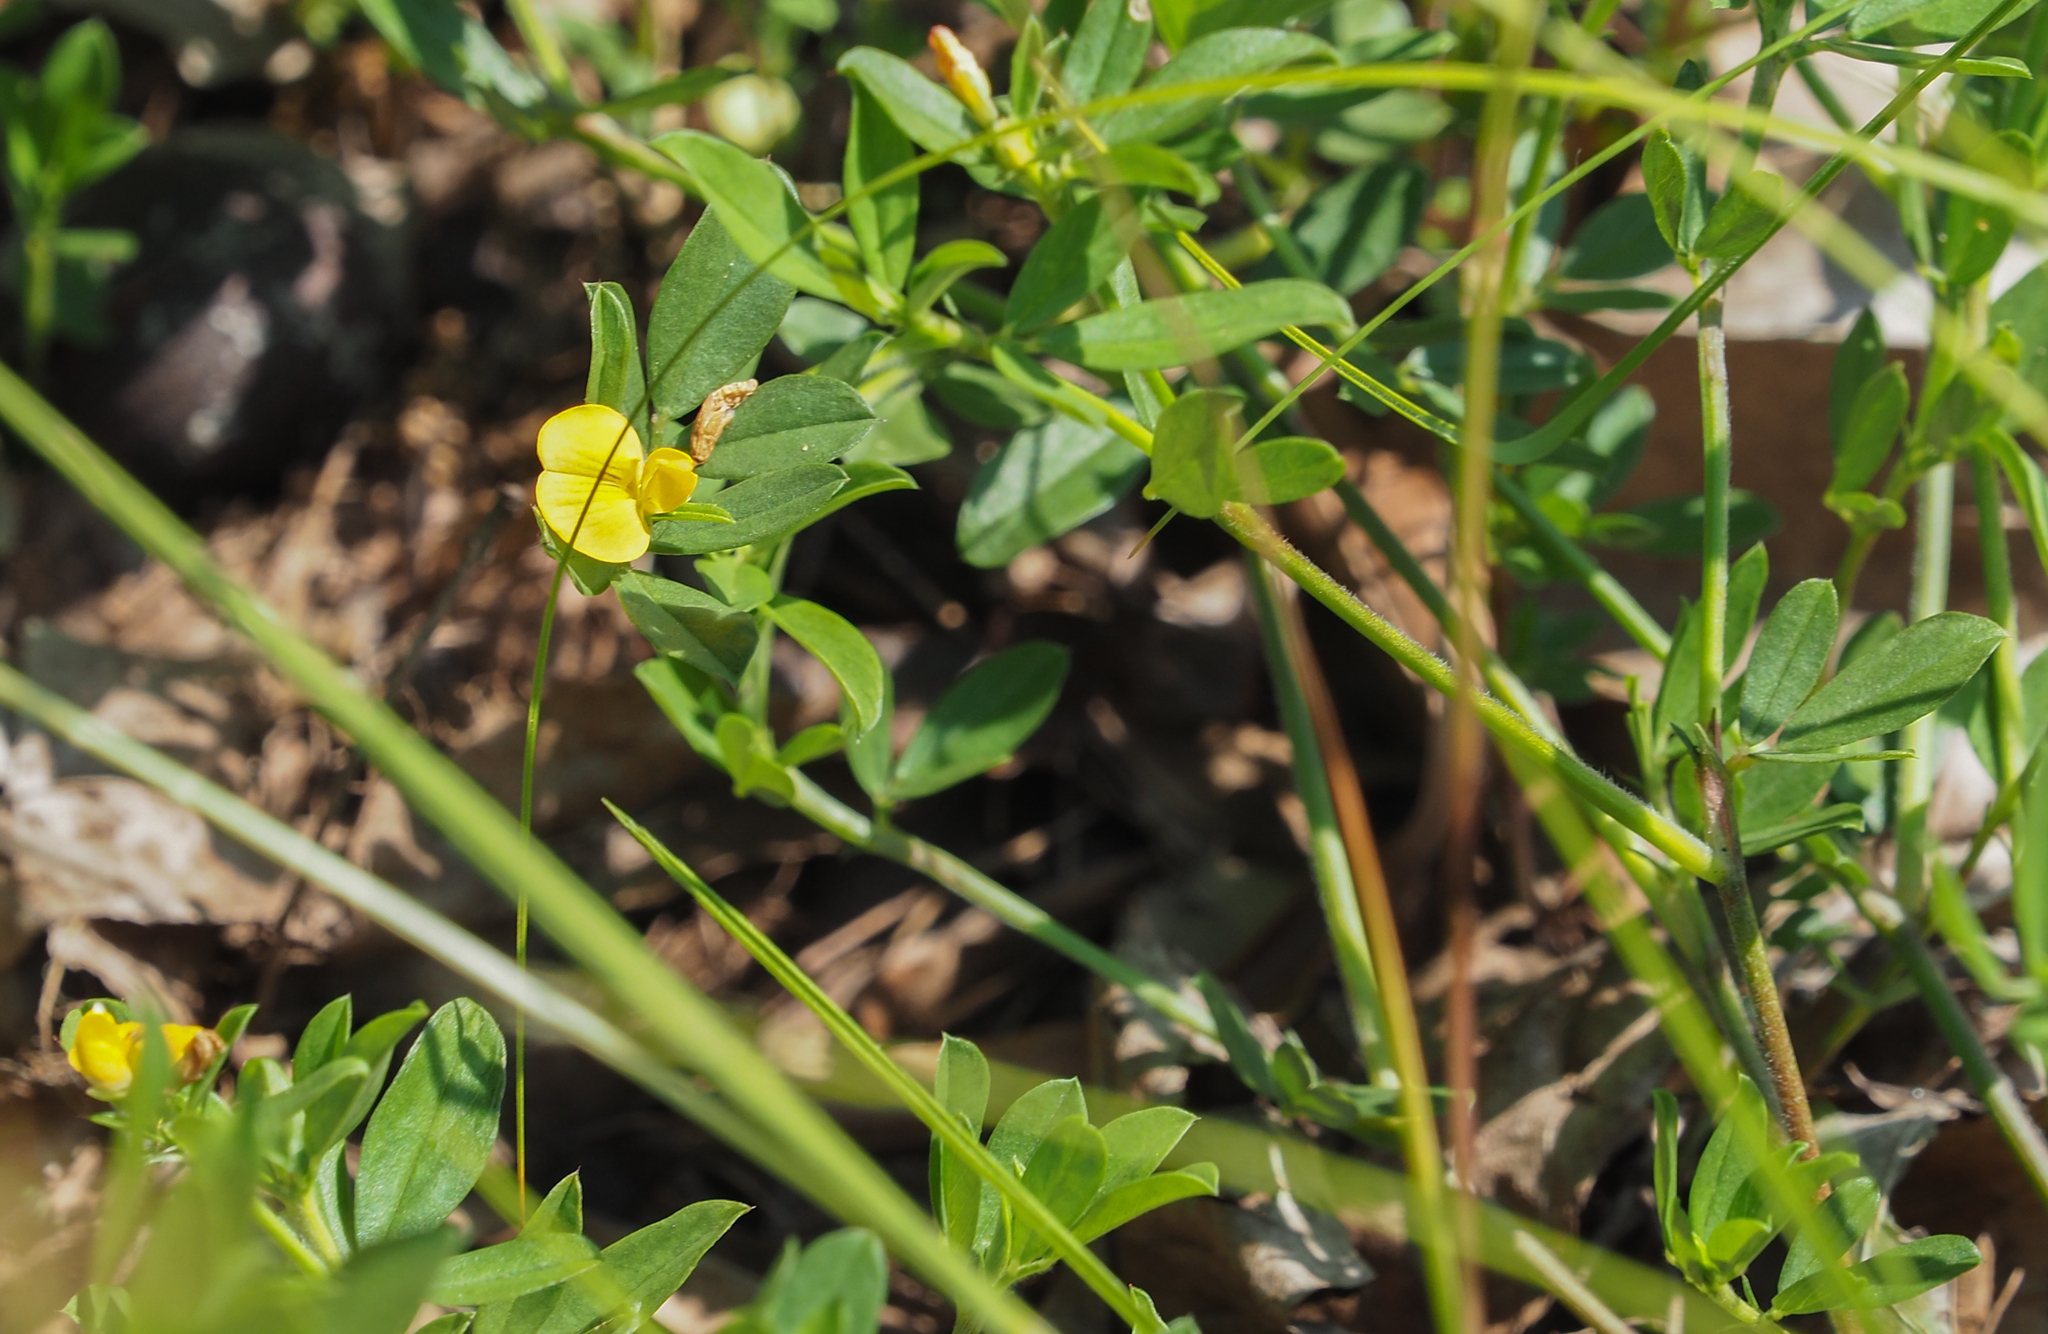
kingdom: Plantae
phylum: Tracheophyta
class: Magnoliopsida
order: Fabales
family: Fabaceae
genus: Stylosanthes
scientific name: Stylosanthes biflora
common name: Two-flower pencil-flower
